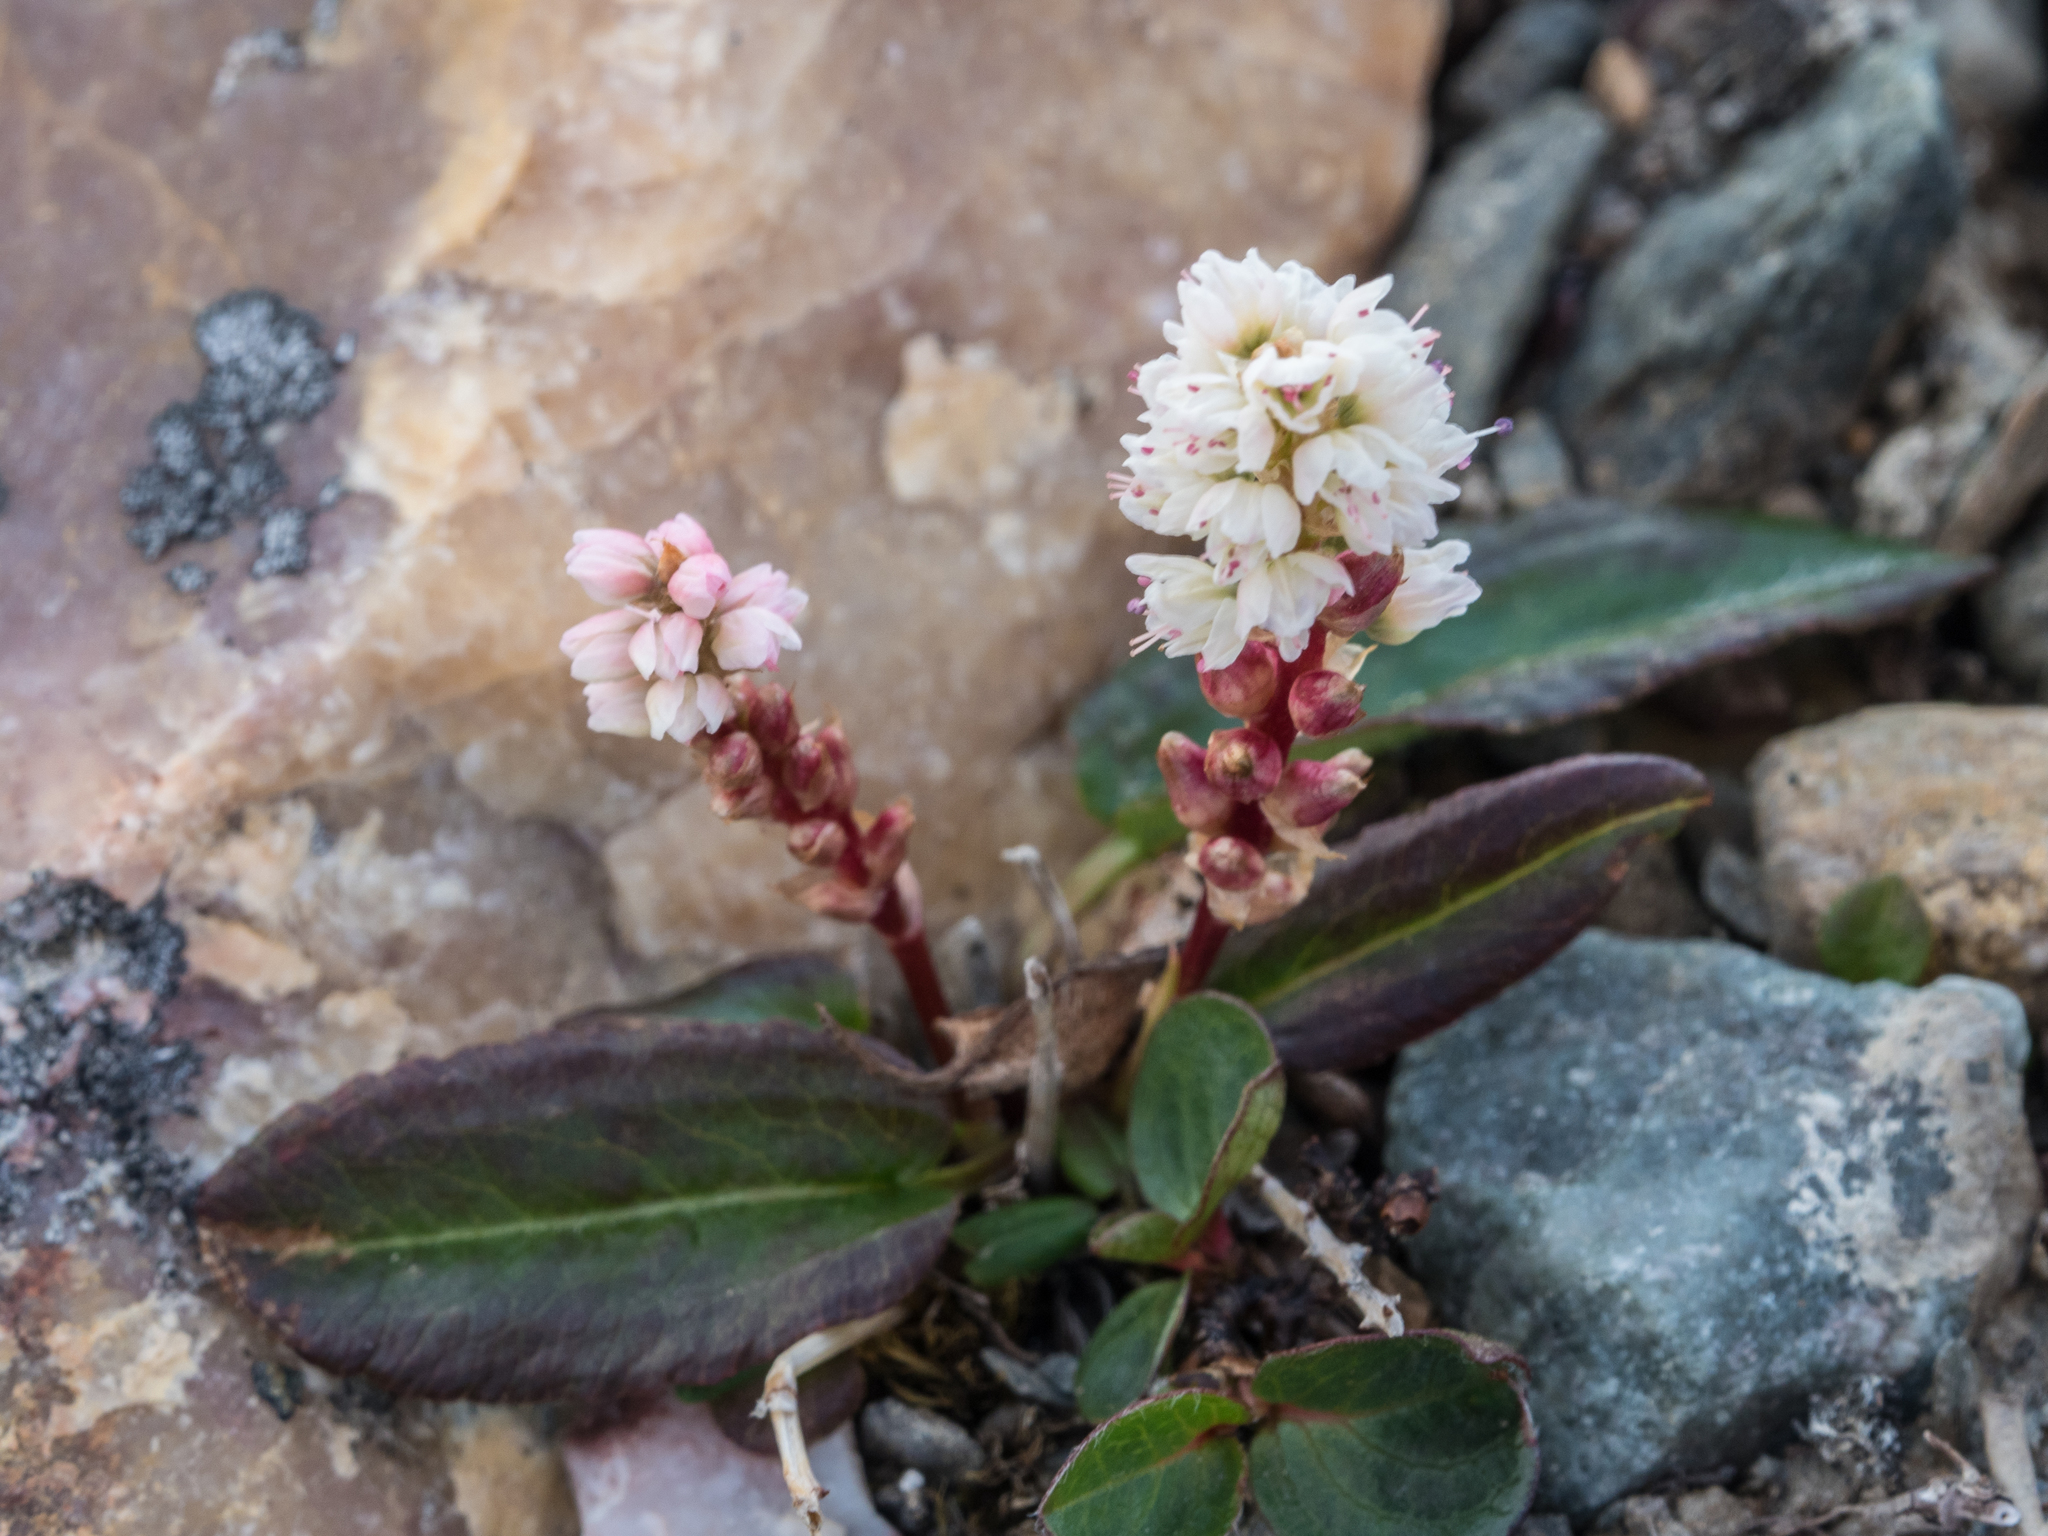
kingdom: Plantae
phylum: Tracheophyta
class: Magnoliopsida
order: Caryophyllales
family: Polygonaceae
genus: Bistorta
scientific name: Bistorta vivipara
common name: Alpine bistort
